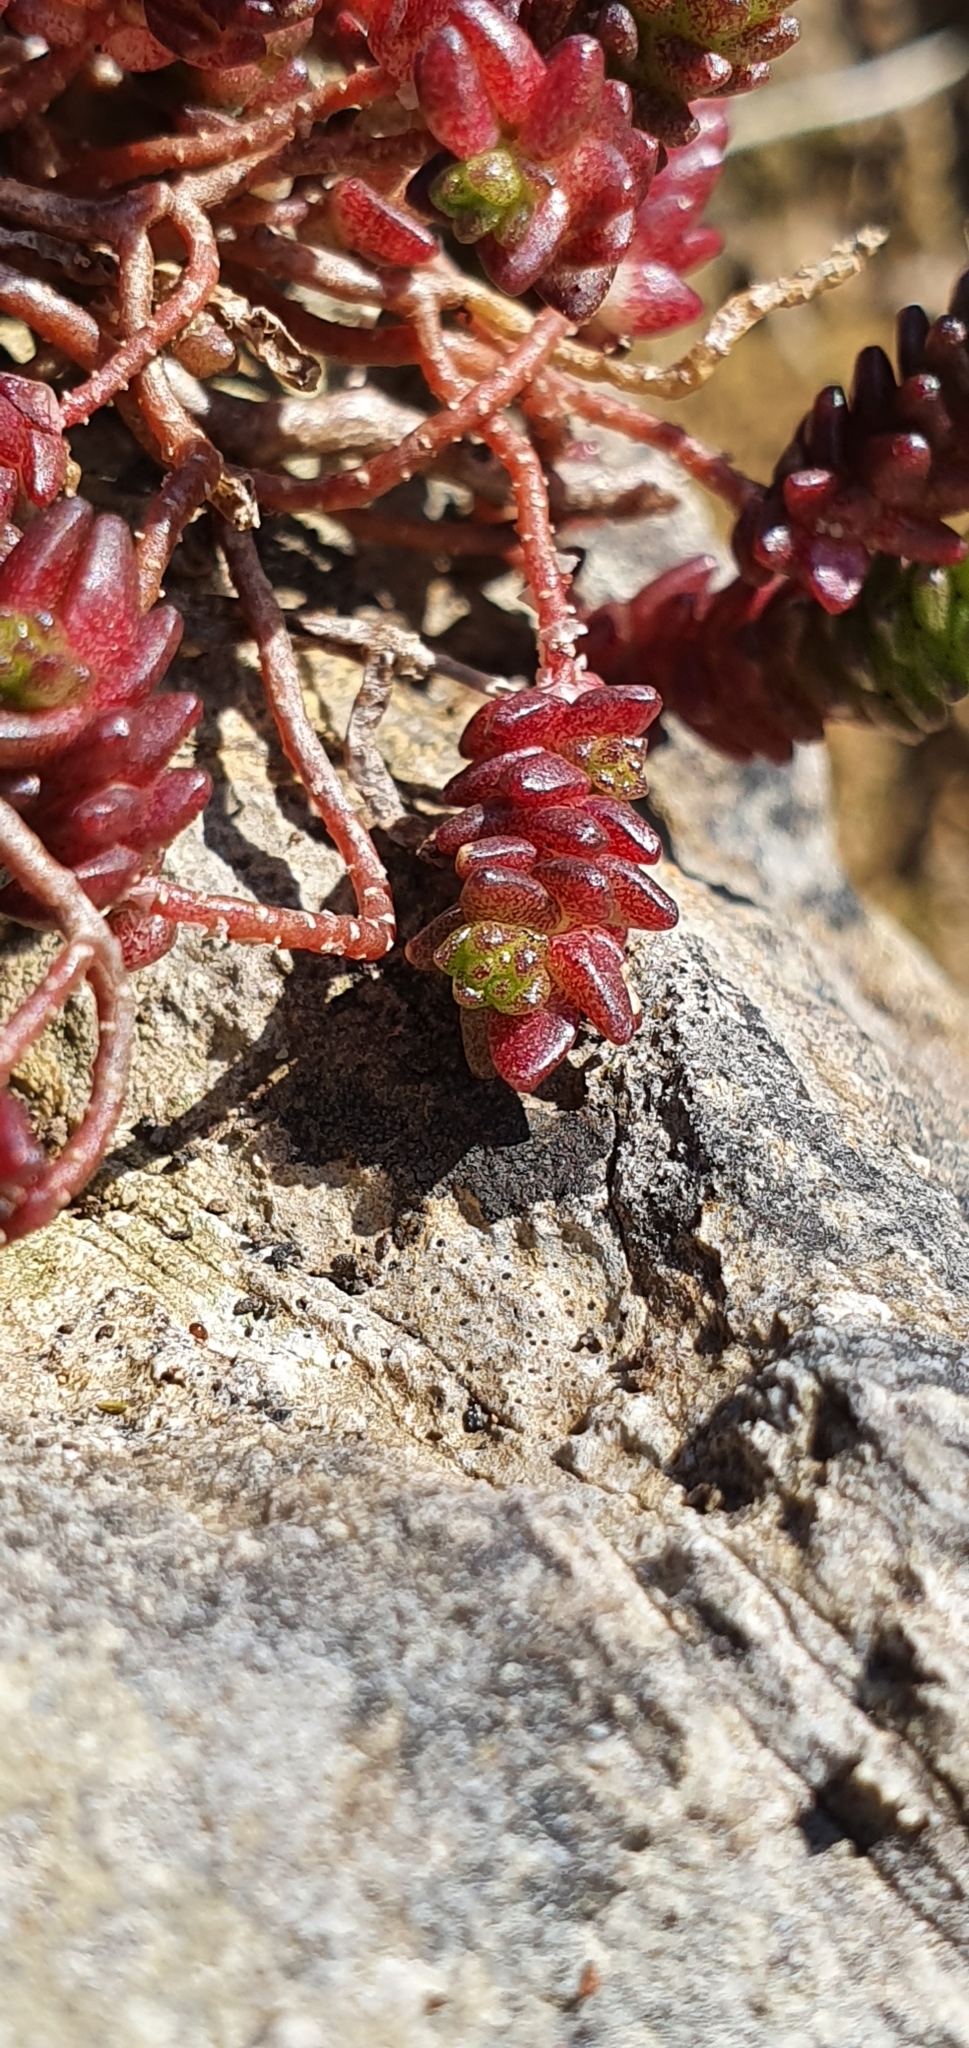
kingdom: Plantae
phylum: Tracheophyta
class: Magnoliopsida
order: Saxifragales
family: Crassulaceae
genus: Sedum
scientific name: Sedum anglicum
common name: English stonecrop
